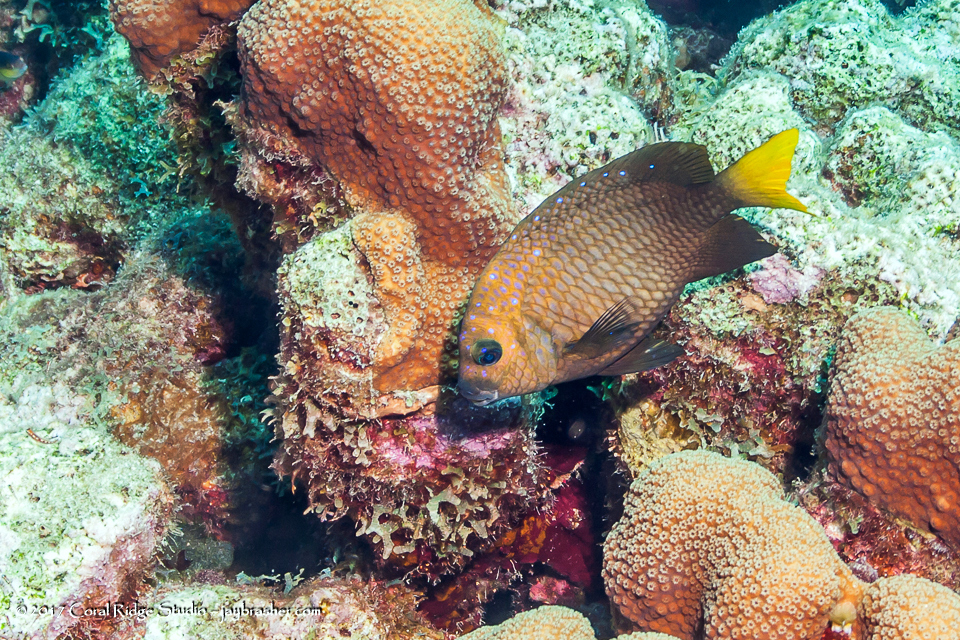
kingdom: Animalia
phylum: Chordata
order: Perciformes
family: Pomacentridae
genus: Microspathodon
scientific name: Microspathodon chrysurus
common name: Yellowtail damselfish
